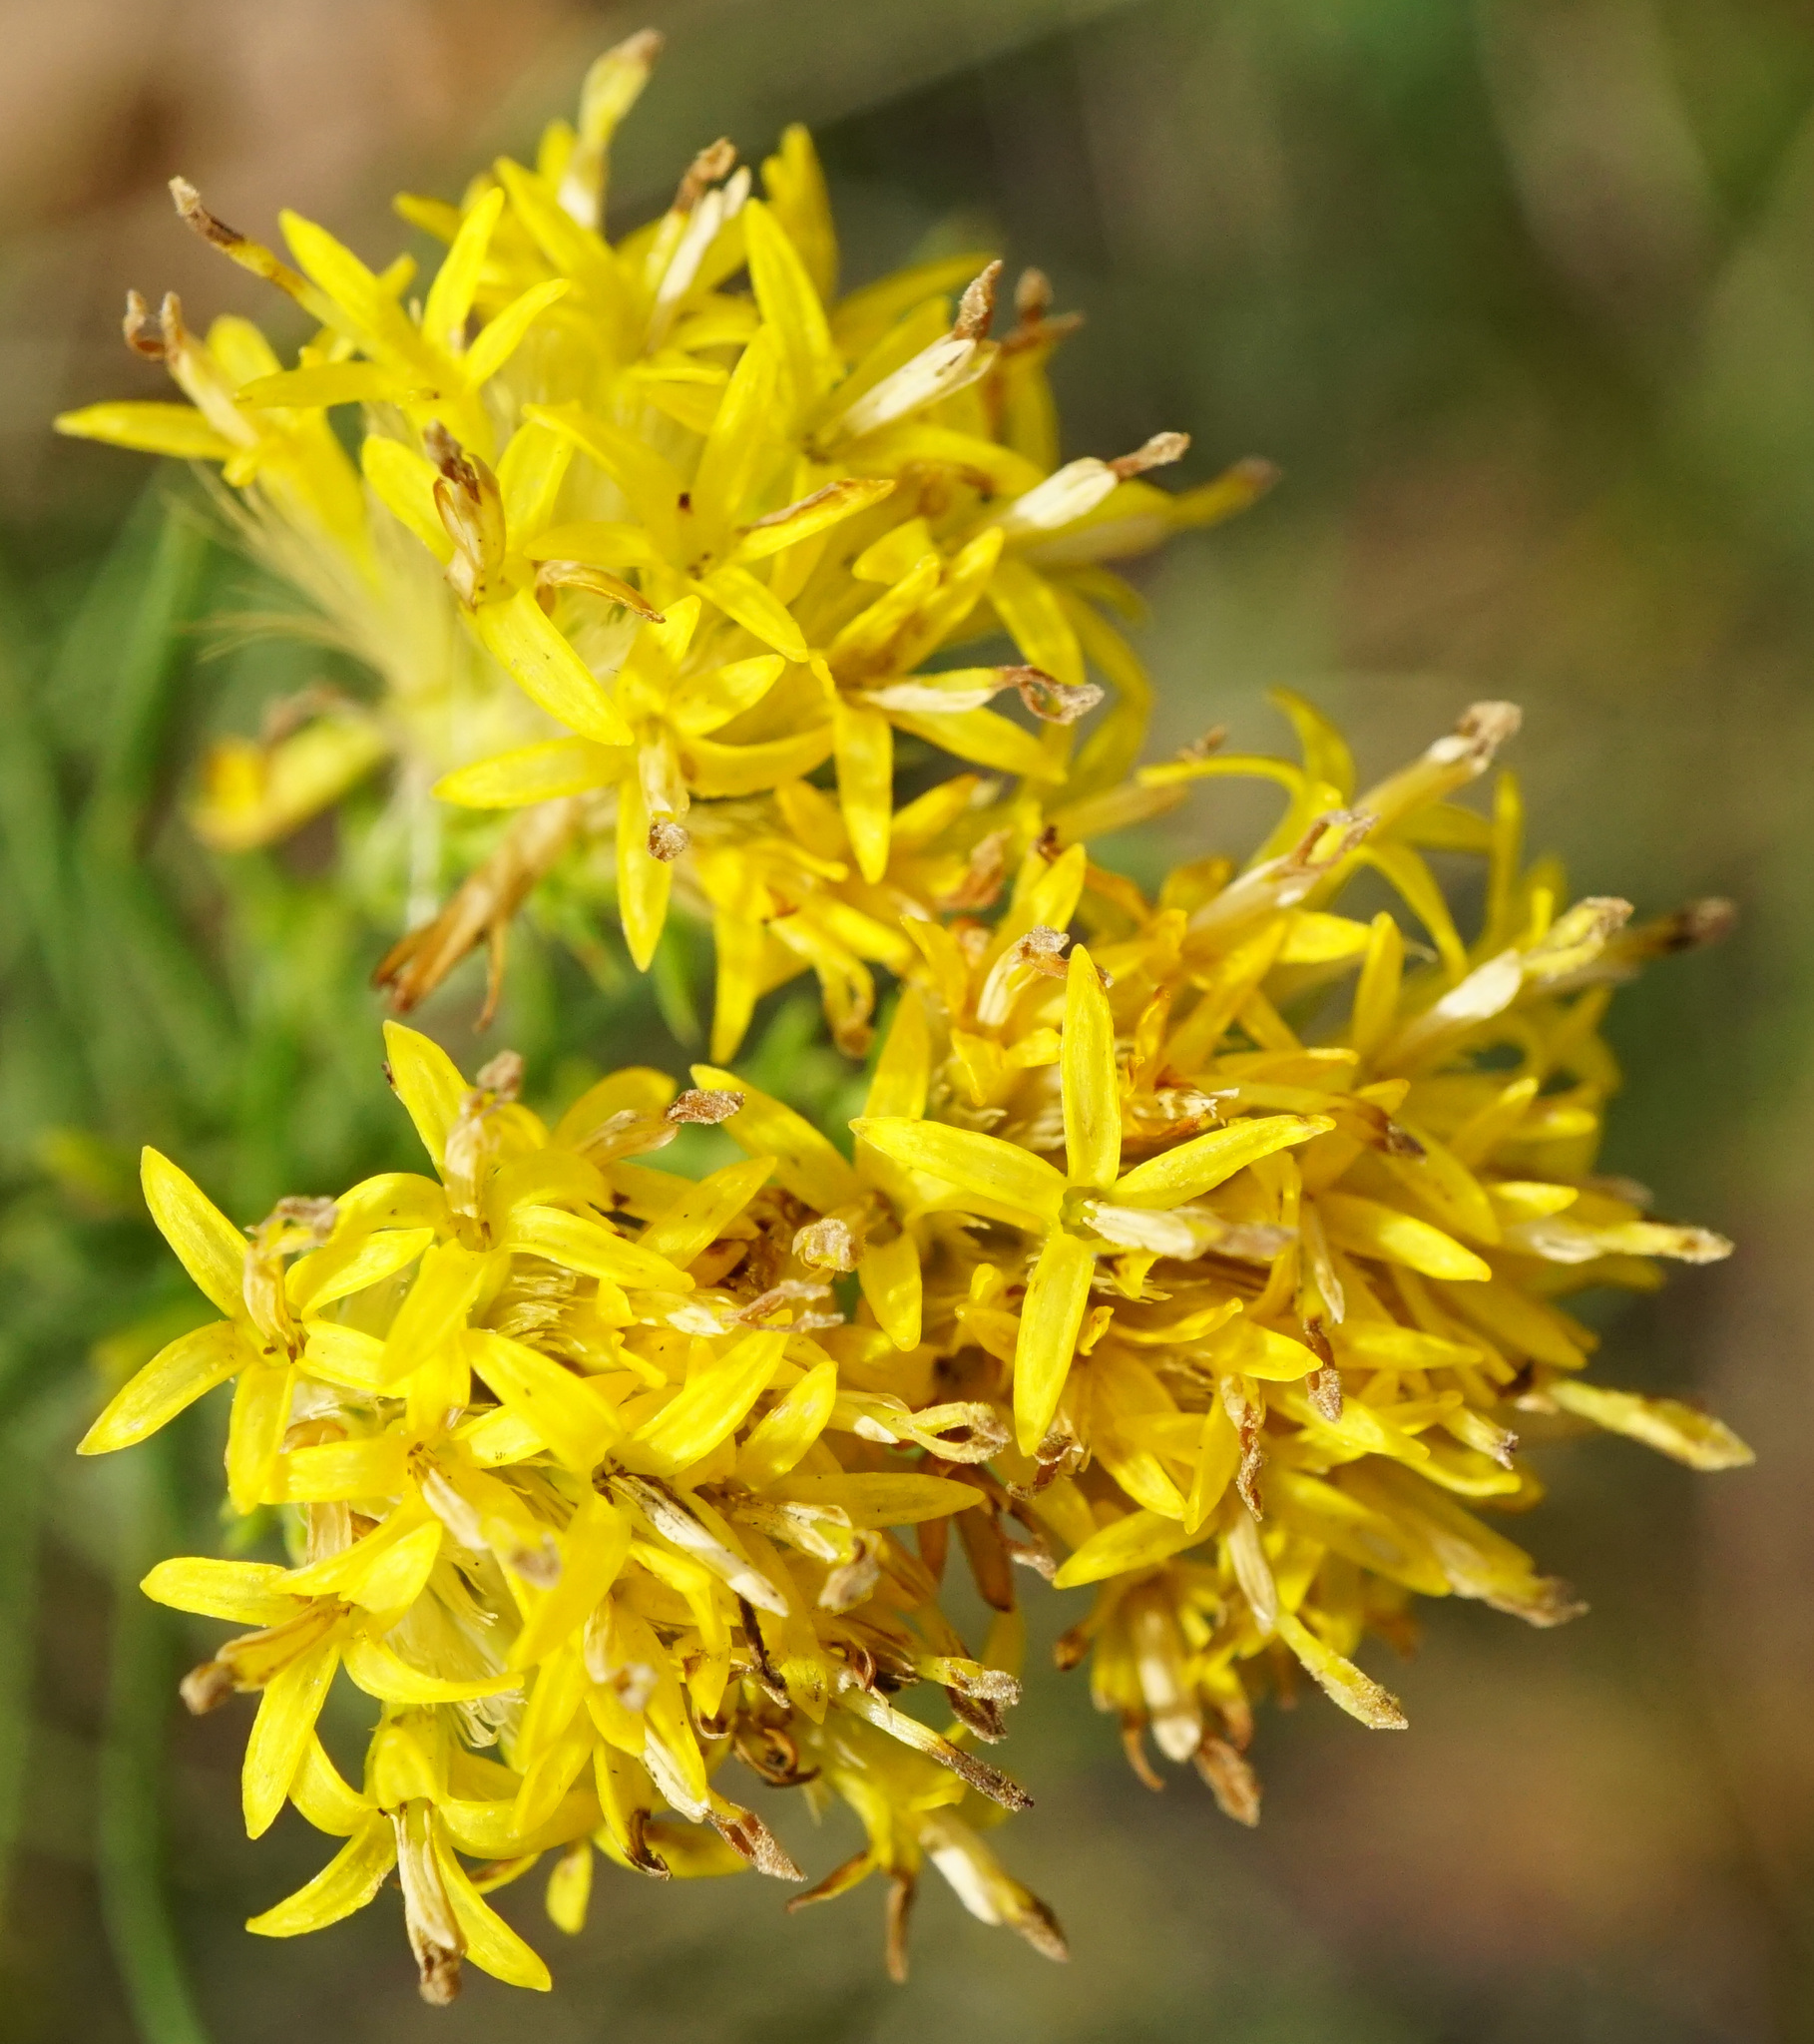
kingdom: Plantae
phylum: Tracheophyta
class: Magnoliopsida
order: Asterales
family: Asteraceae
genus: Galatella
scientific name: Galatella linosyris
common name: Goldilocks aster
